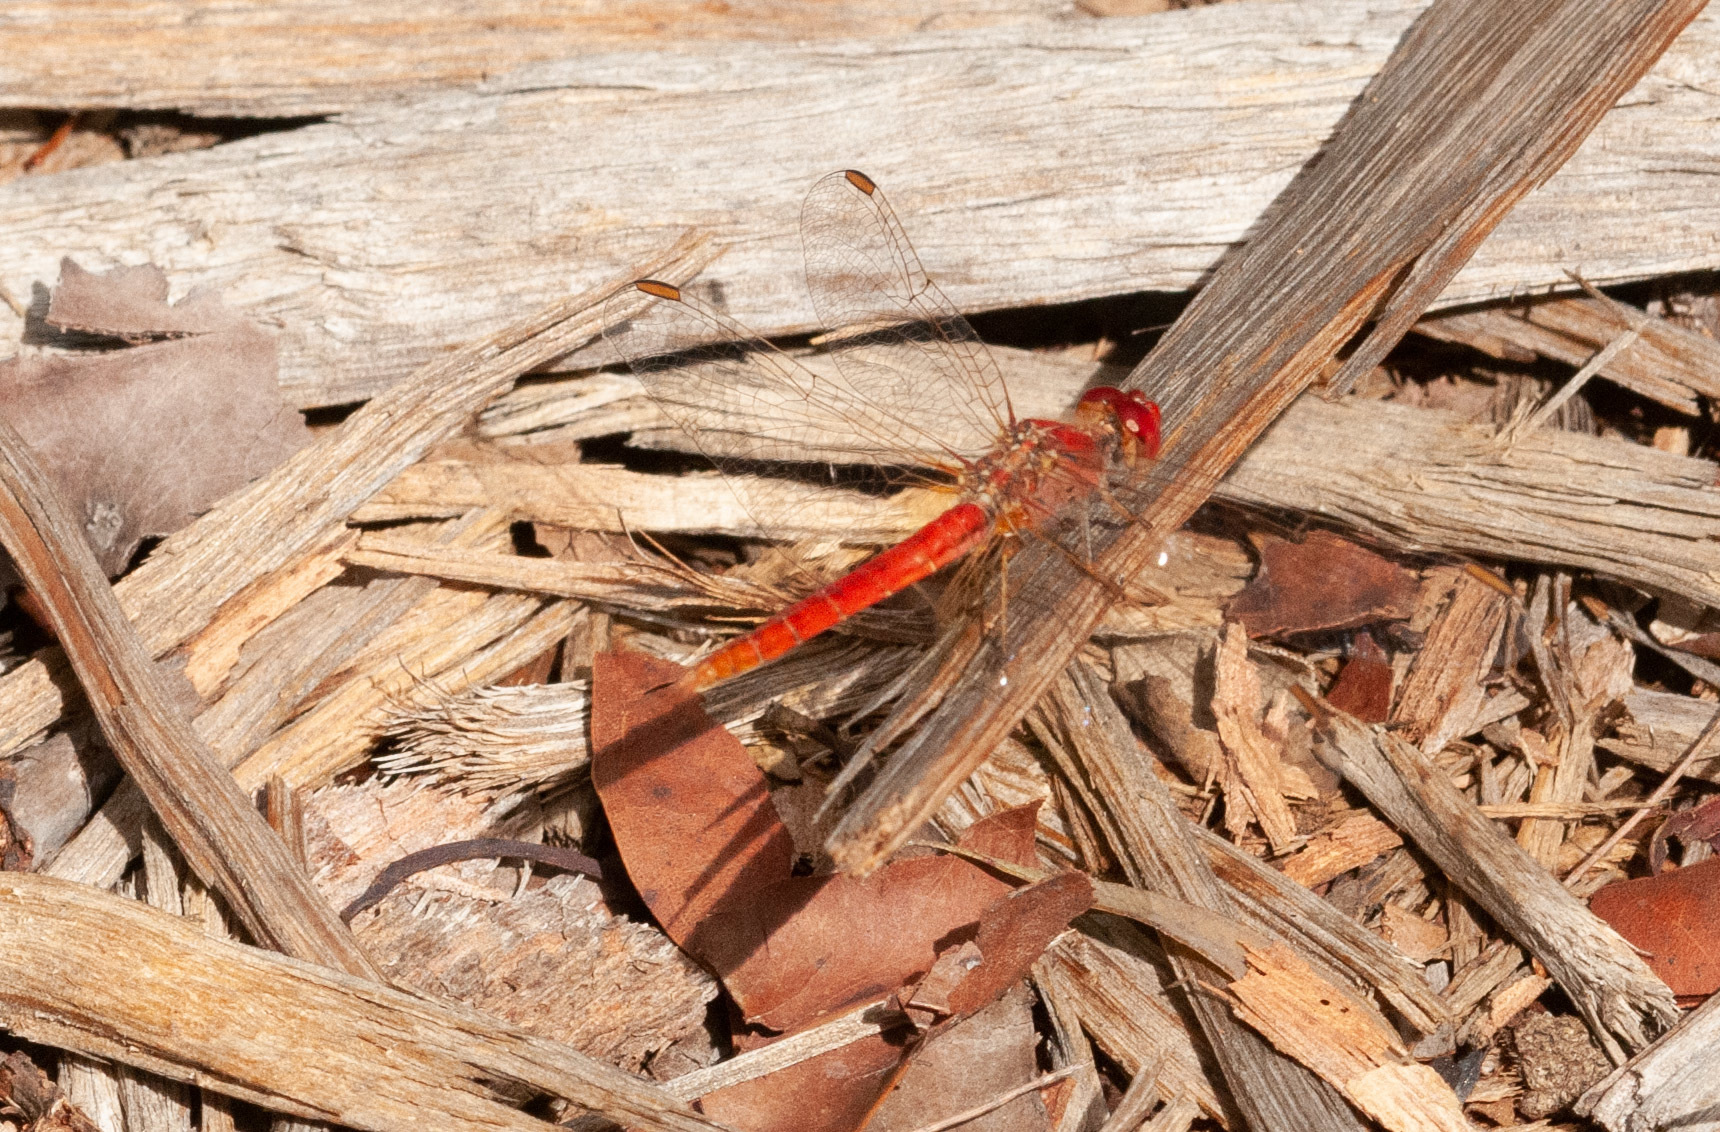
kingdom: Animalia
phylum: Arthropoda
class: Insecta
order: Odonata
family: Libellulidae
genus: Diplacodes
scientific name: Diplacodes haematodes
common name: Scarlet percher
